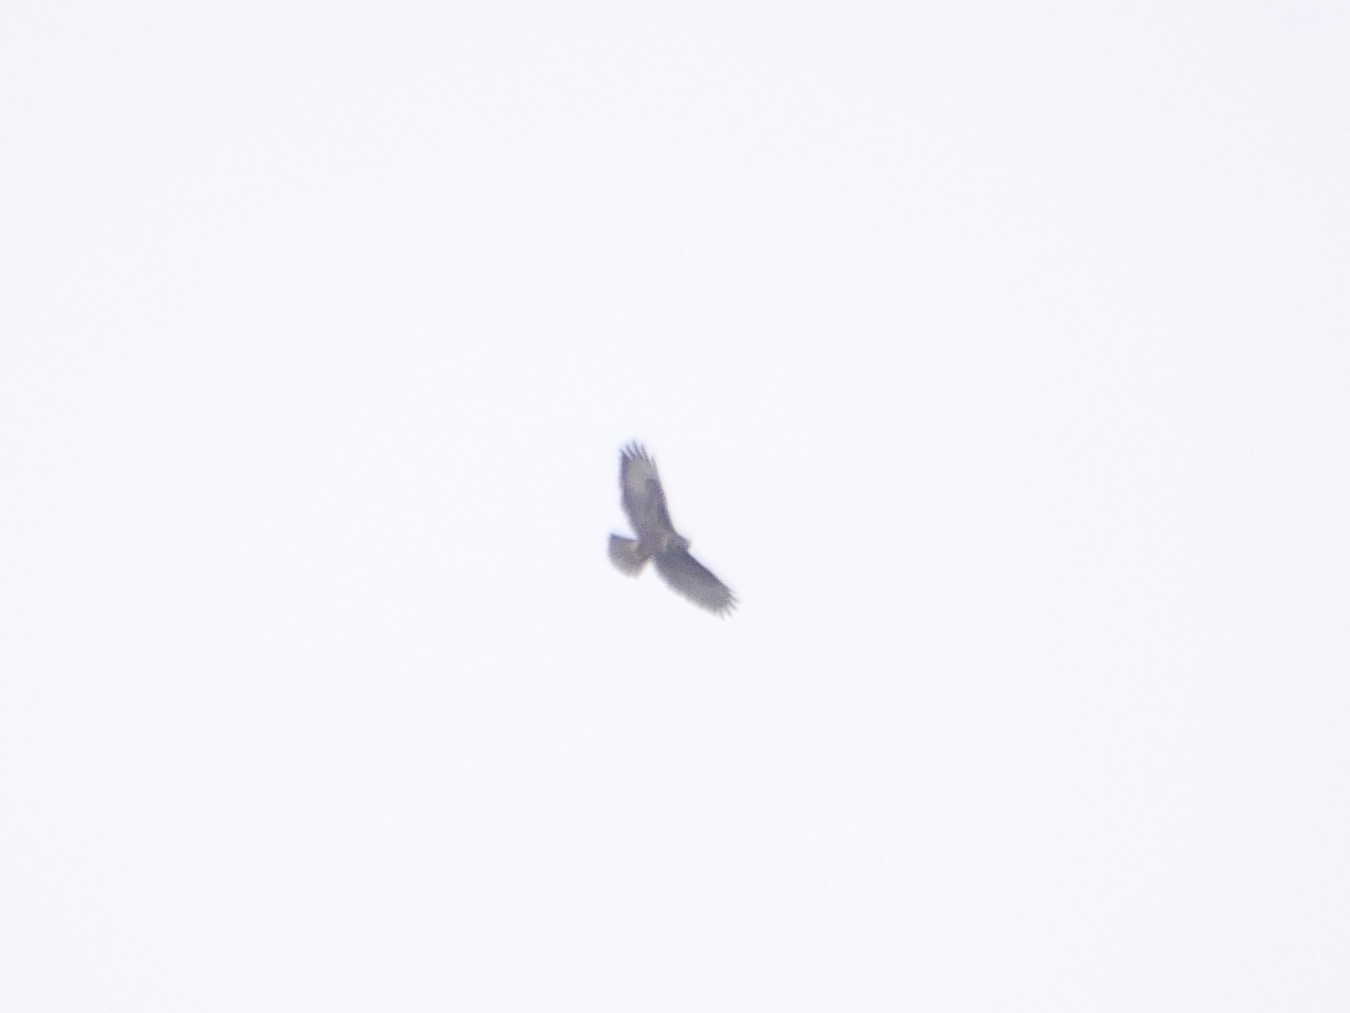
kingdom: Animalia
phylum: Chordata
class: Aves
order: Accipitriformes
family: Accipitridae
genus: Buteo
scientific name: Buteo buteo
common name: Common buzzard
